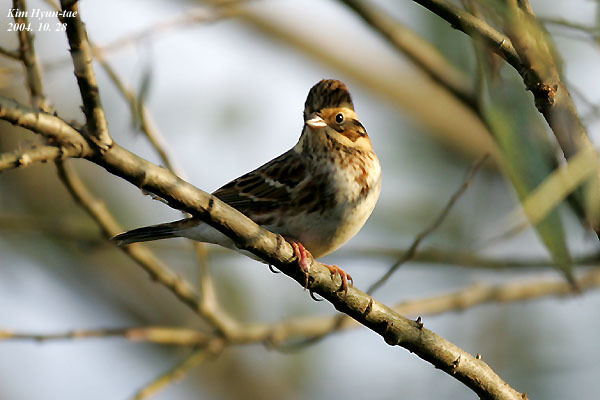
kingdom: Animalia
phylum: Chordata
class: Aves
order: Passeriformes
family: Emberizidae
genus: Emberiza
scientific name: Emberiza rustica
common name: Rustic bunting
